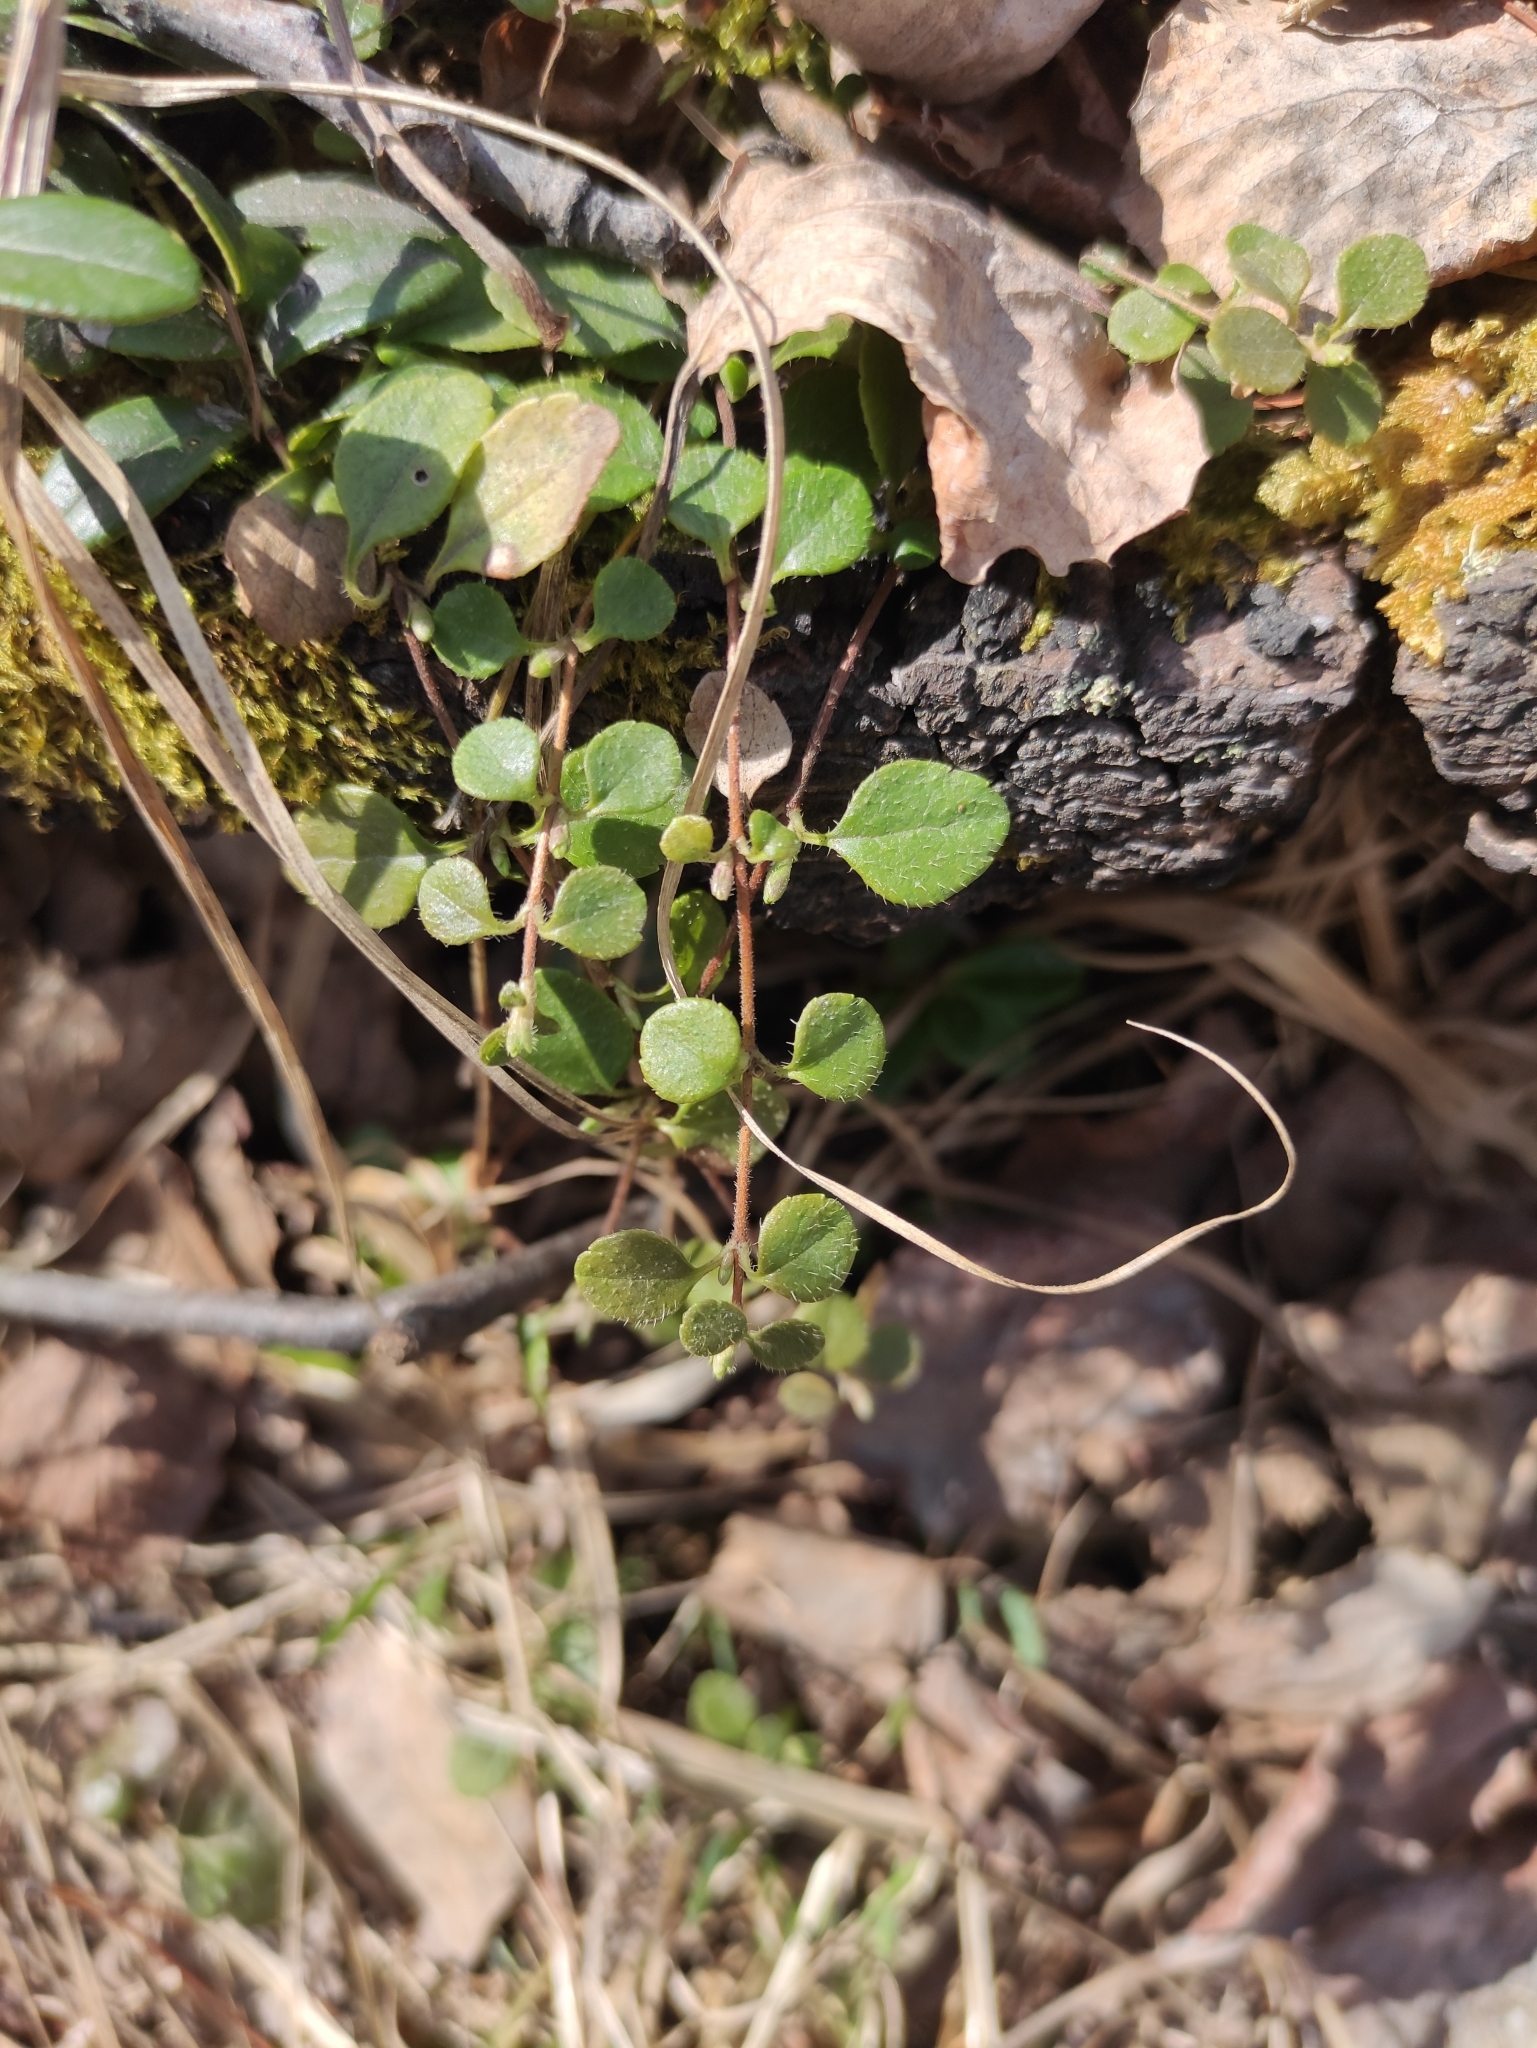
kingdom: Plantae
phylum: Tracheophyta
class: Magnoliopsida
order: Dipsacales
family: Caprifoliaceae
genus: Linnaea
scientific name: Linnaea borealis
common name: Twinflower
